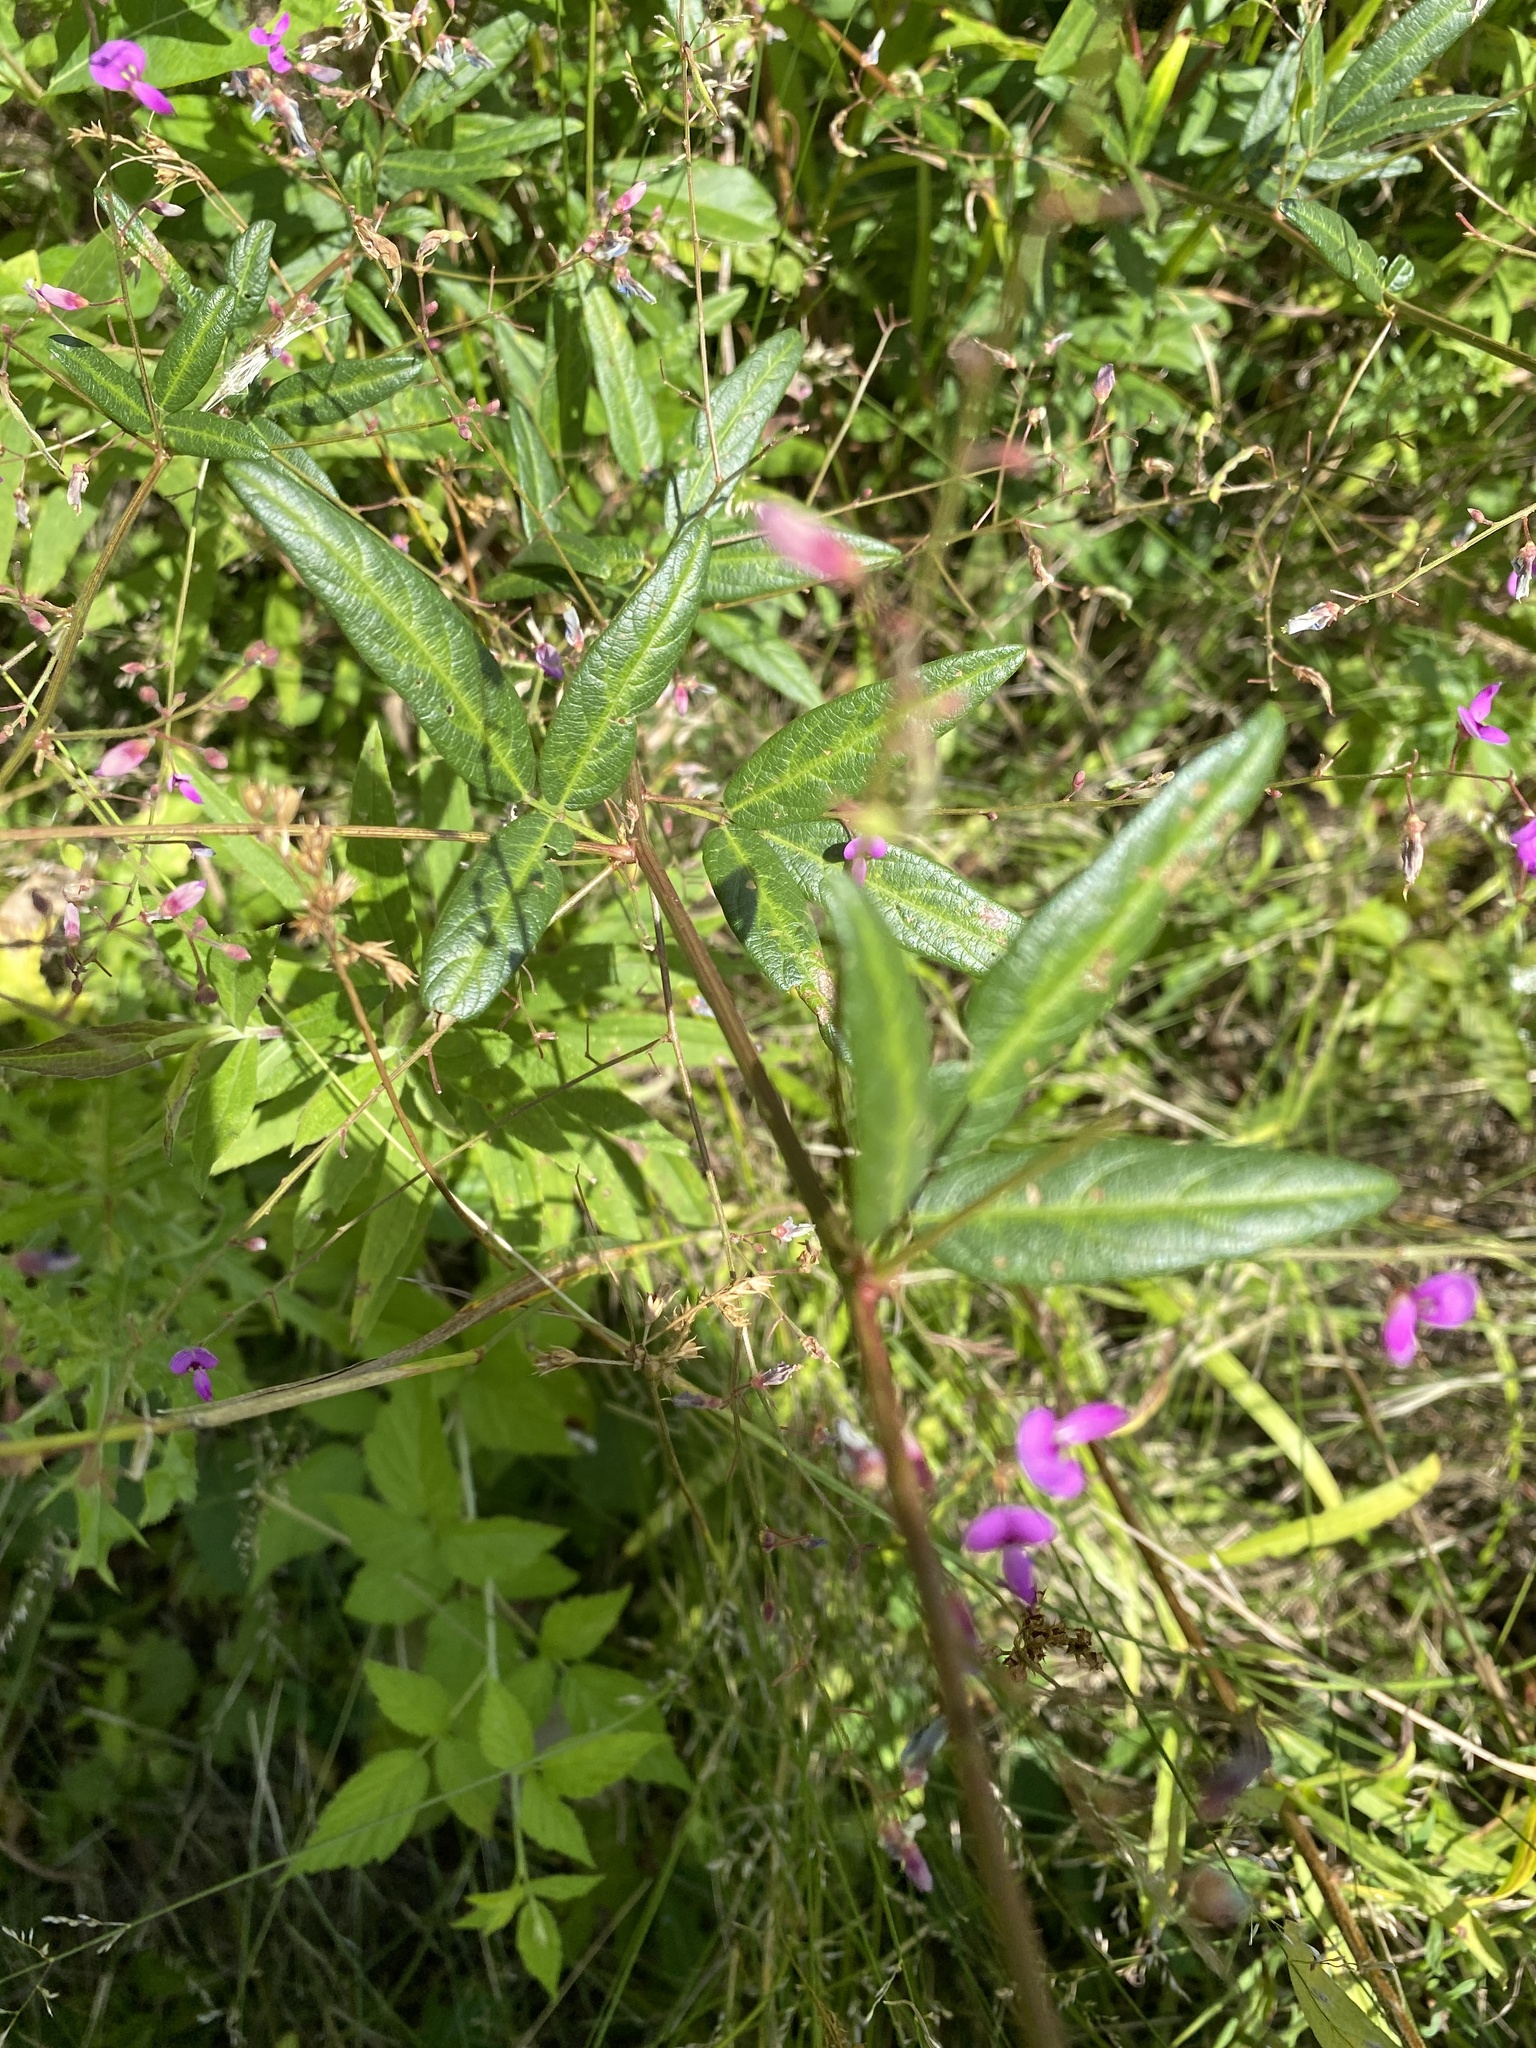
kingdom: Plantae
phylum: Tracheophyta
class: Magnoliopsida
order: Fabales
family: Fabaceae
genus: Desmodium
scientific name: Desmodium paniculatum
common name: Panicled tick-clover
